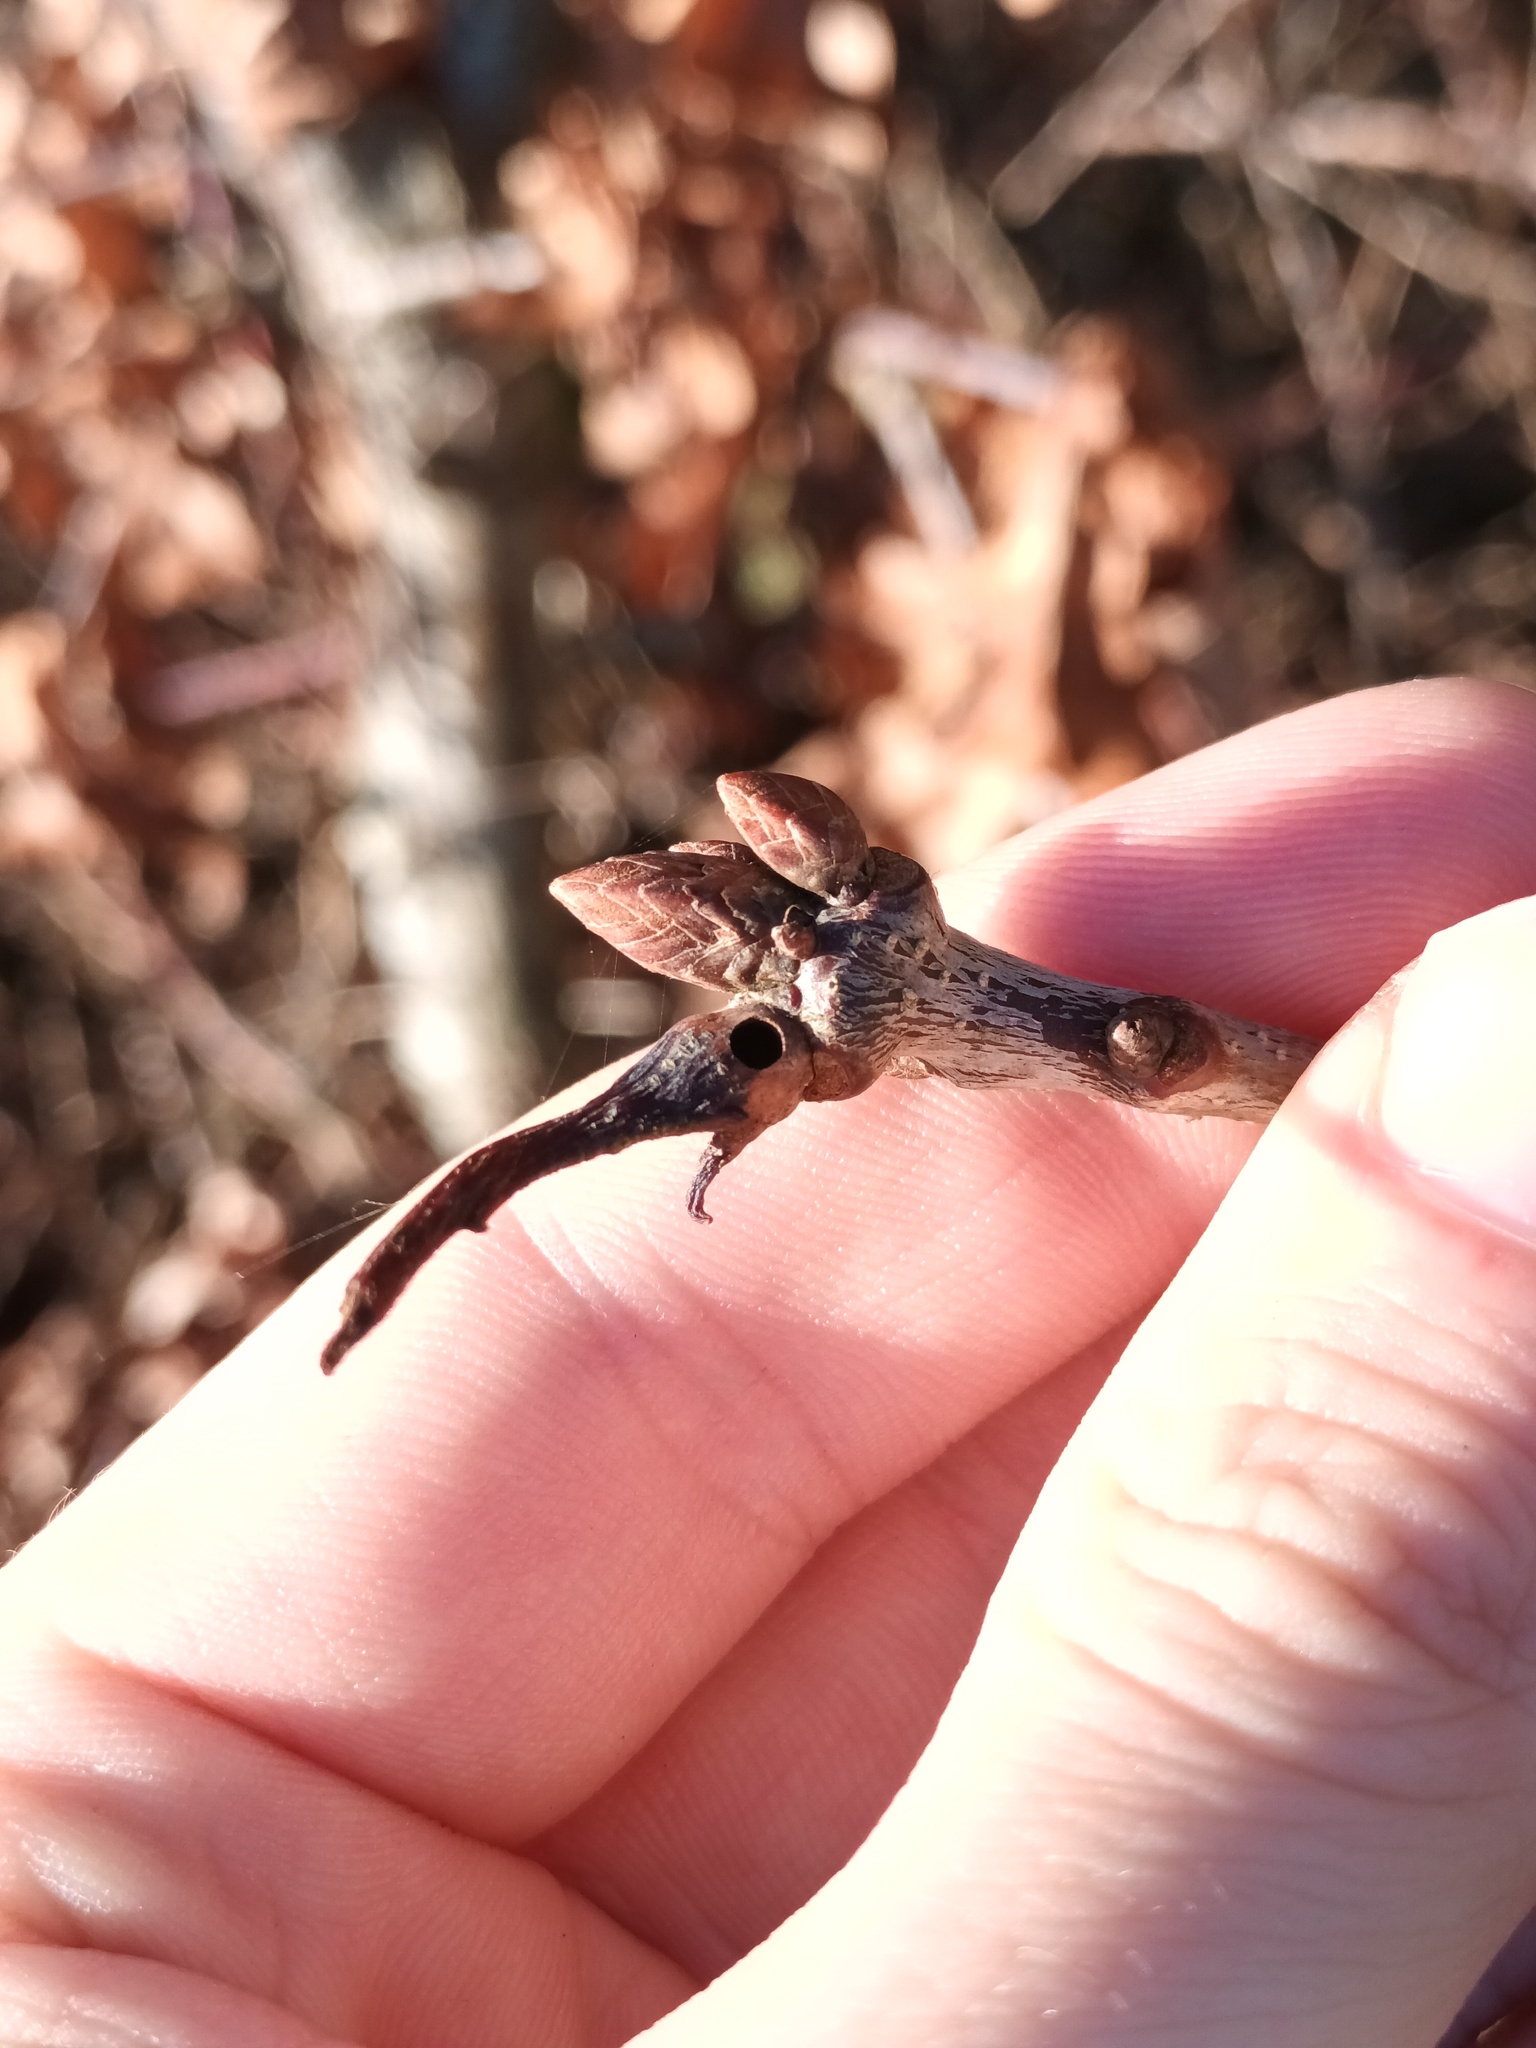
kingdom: Animalia
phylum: Arthropoda
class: Insecta
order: Hymenoptera
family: Cynipidae
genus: Andricus
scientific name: Andricus aries
